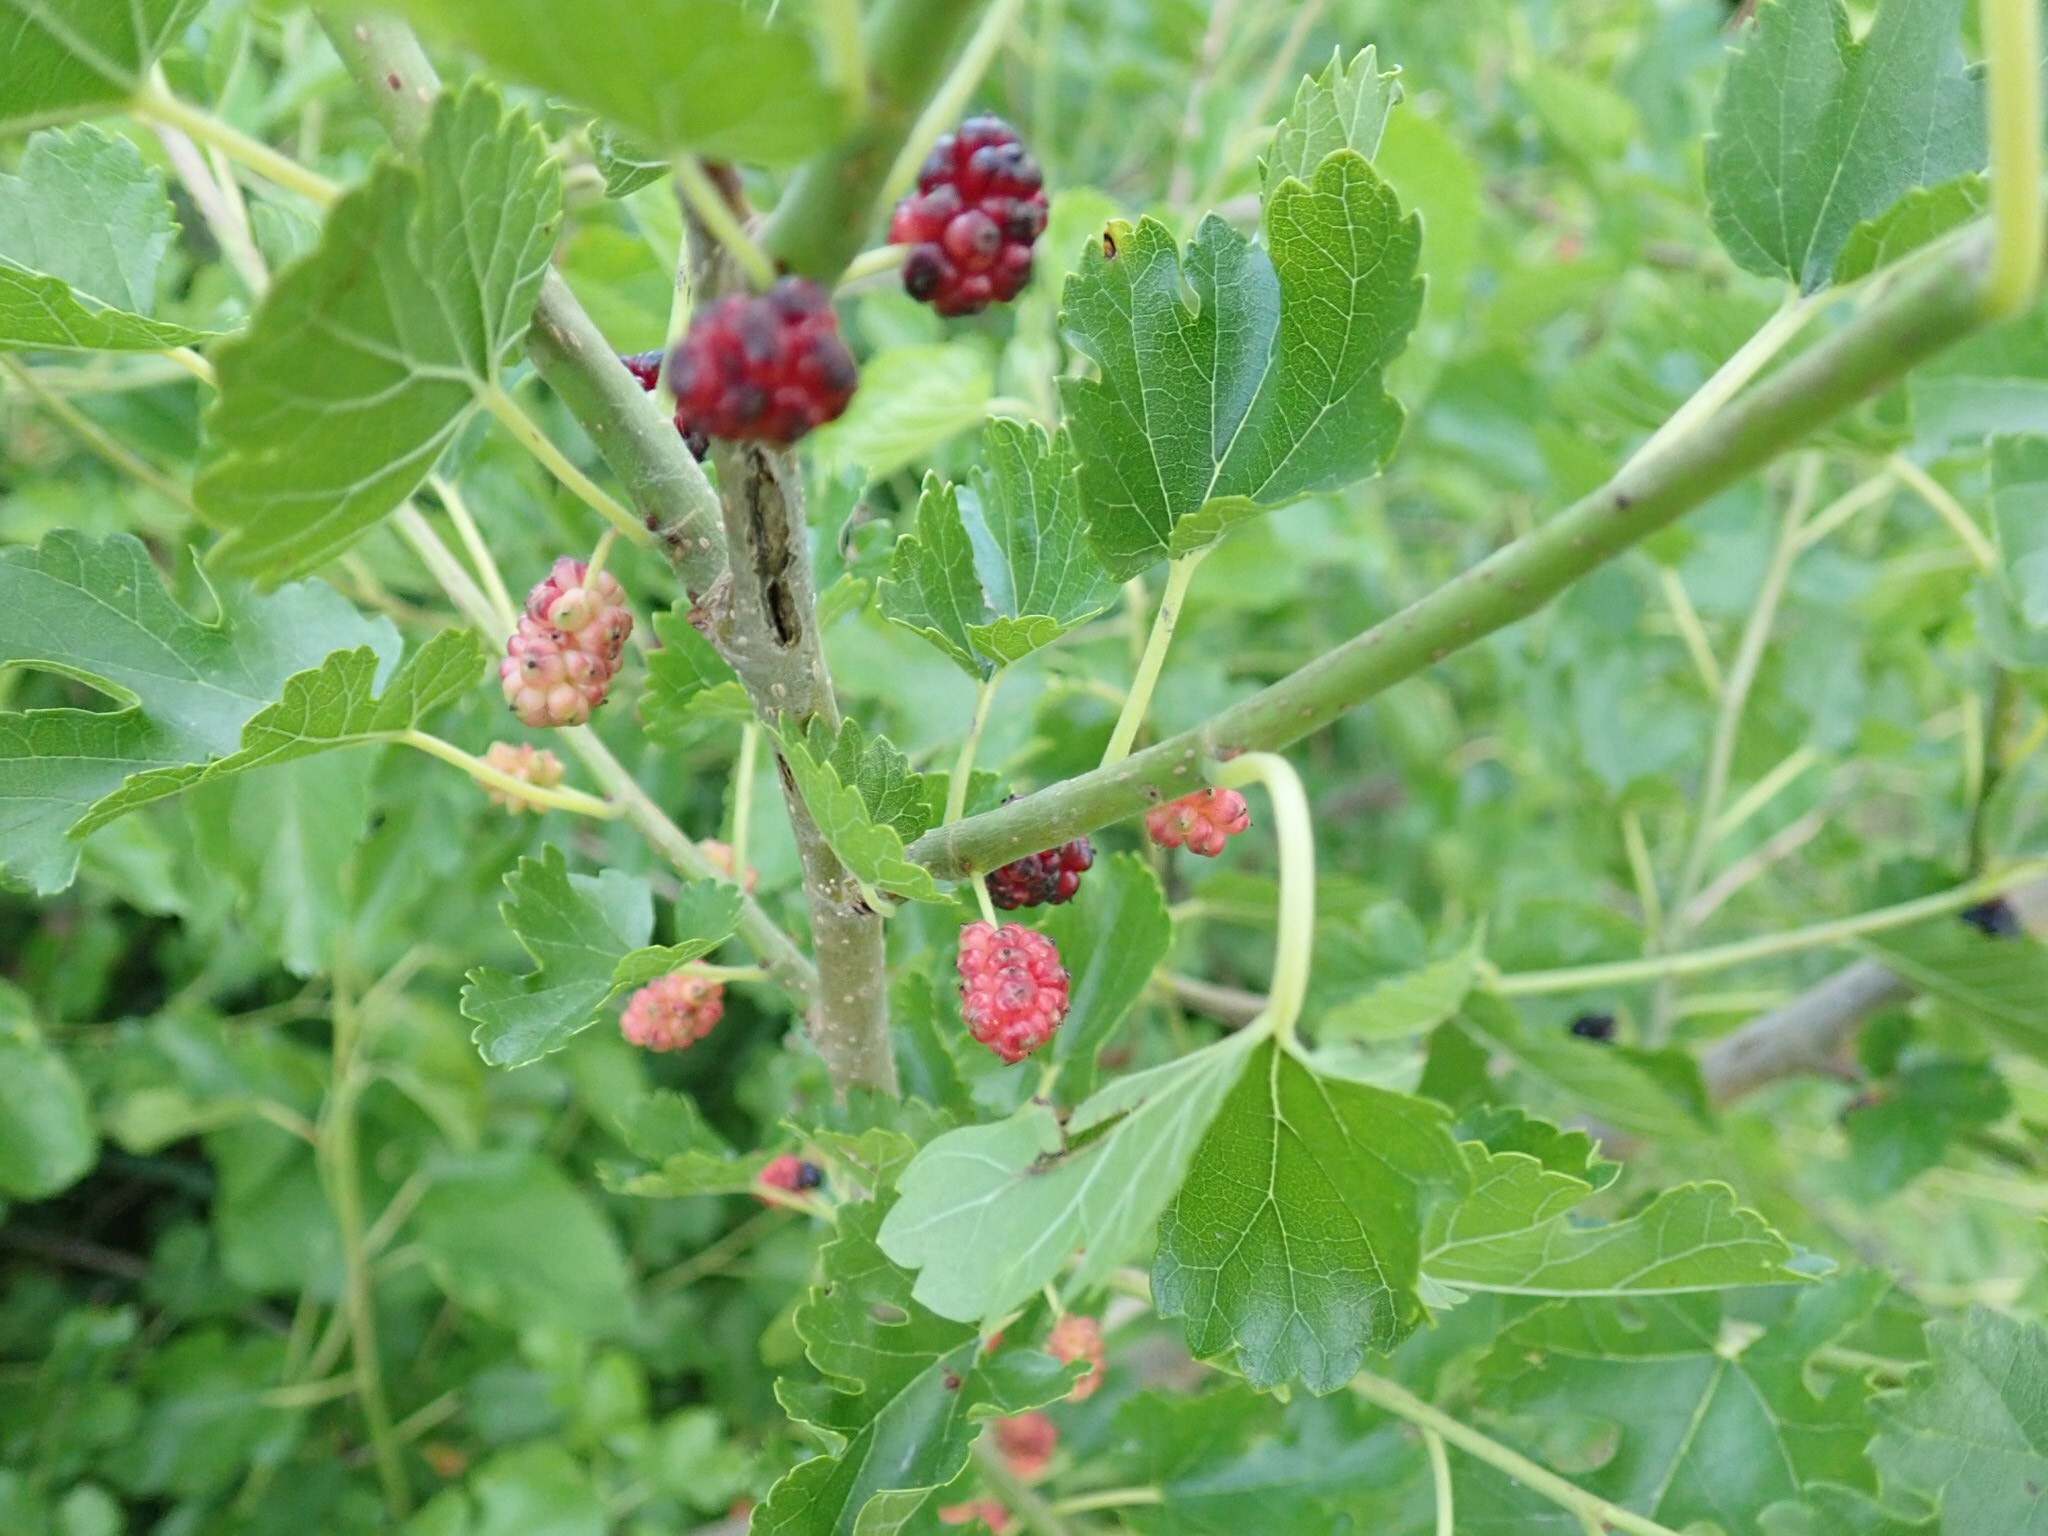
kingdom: Plantae
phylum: Tracheophyta
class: Magnoliopsida
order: Rosales
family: Moraceae
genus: Morus
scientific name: Morus alba
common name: White mulberry
